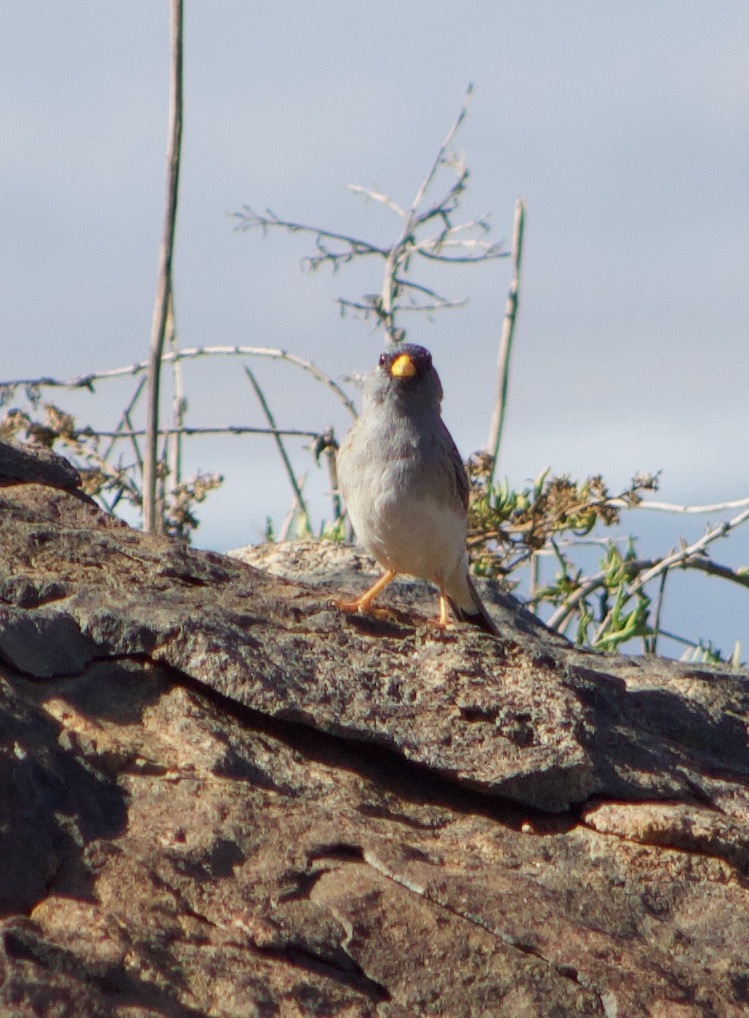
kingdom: Animalia
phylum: Chordata
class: Aves
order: Passeriformes
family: Thraupidae
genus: Porphyrospiza
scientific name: Porphyrospiza alaudina
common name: Band-tailed sierra finch
